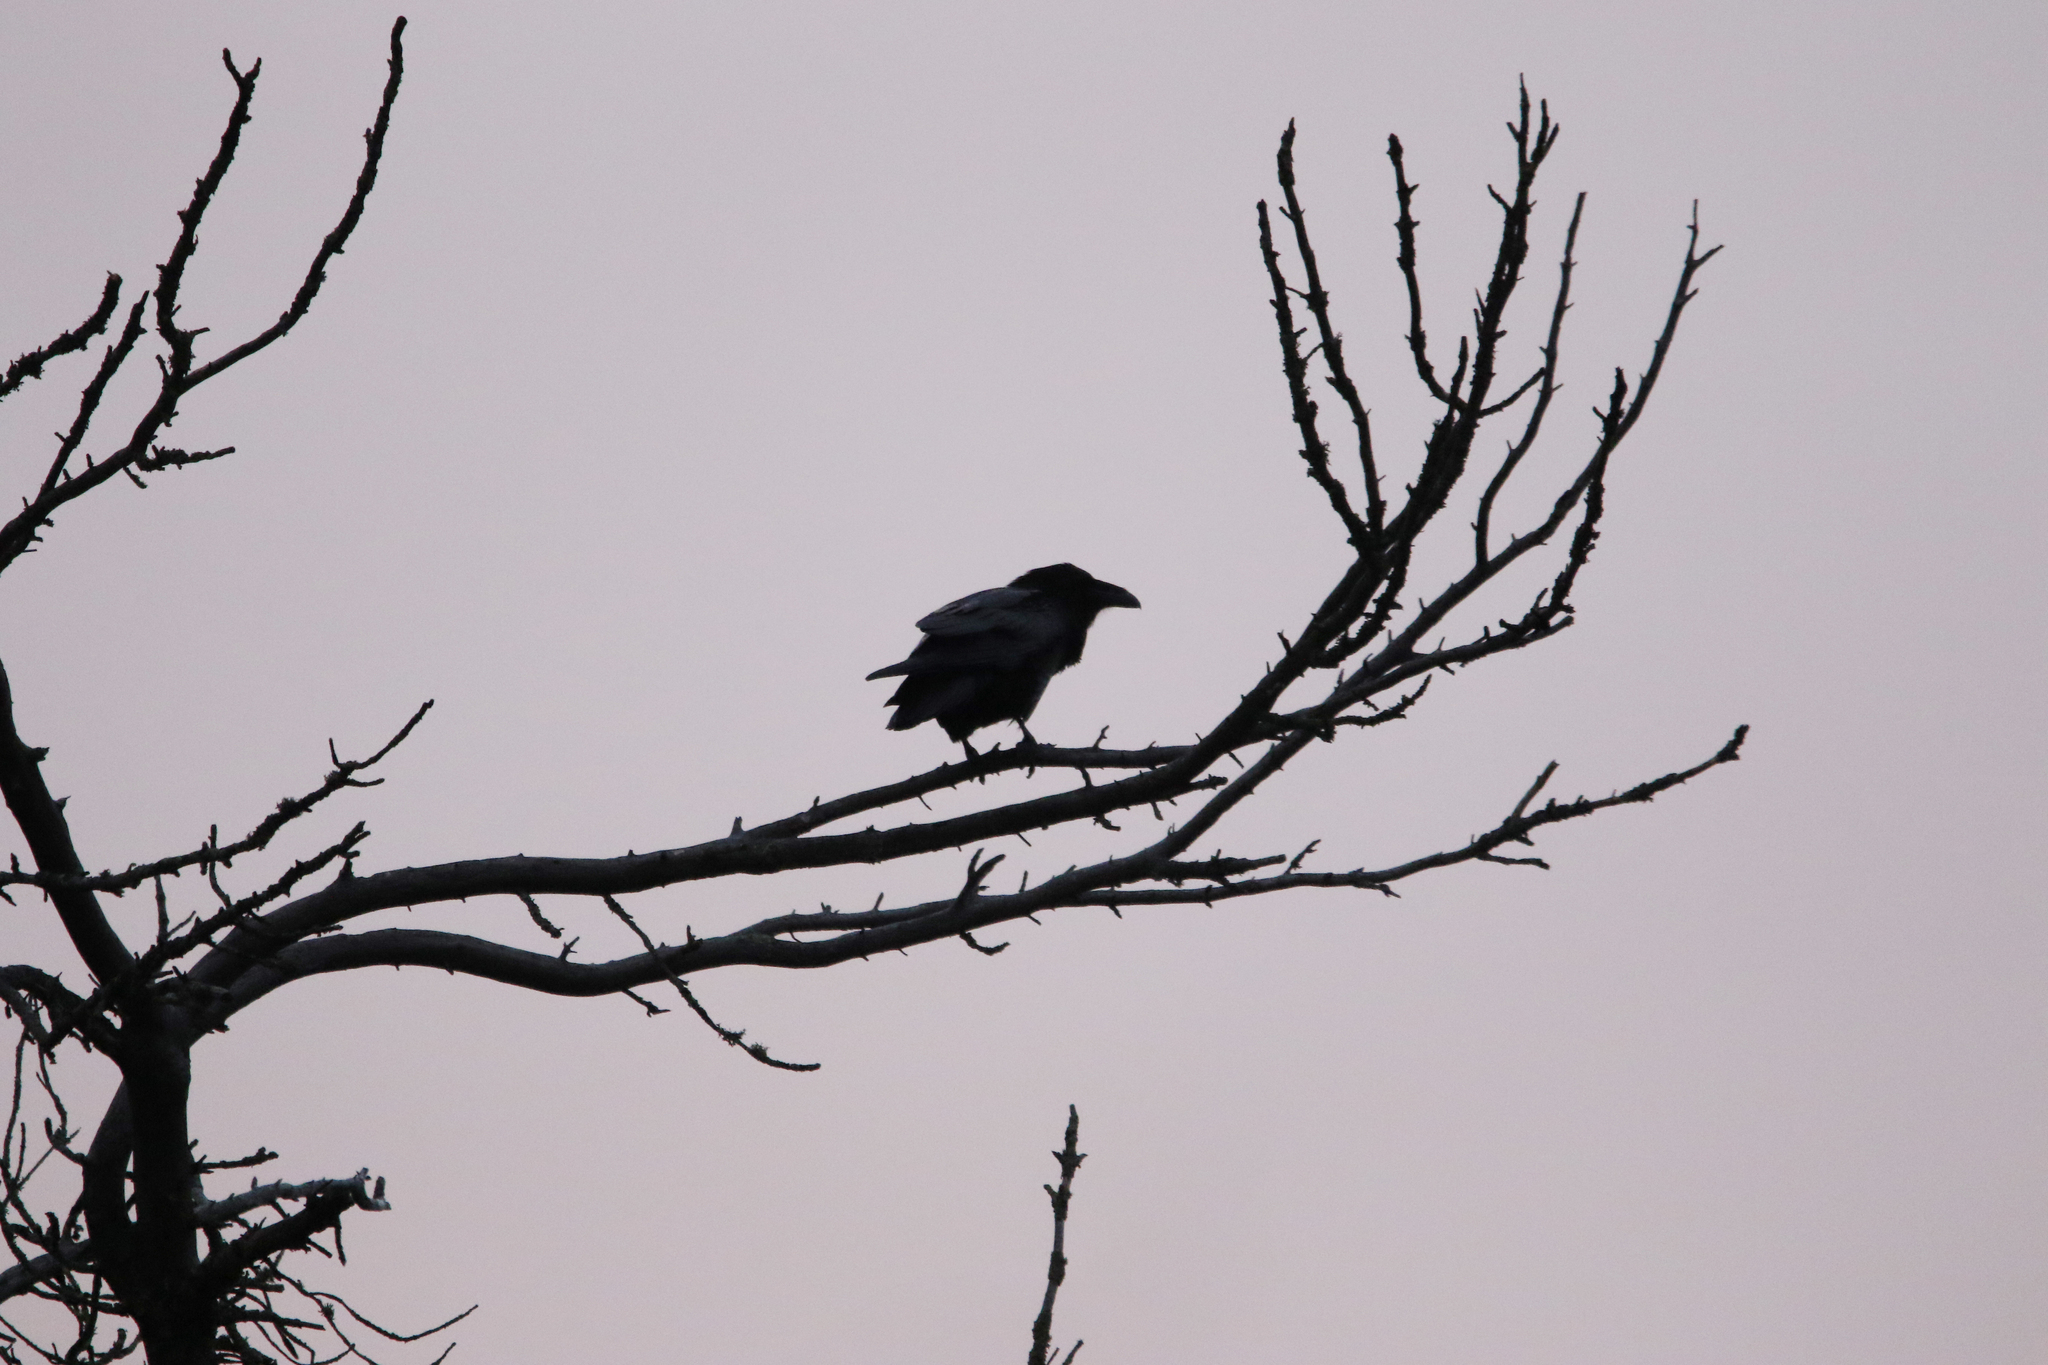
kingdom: Animalia
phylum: Chordata
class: Aves
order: Passeriformes
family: Corvidae
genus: Corvus
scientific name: Corvus corax
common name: Common raven
